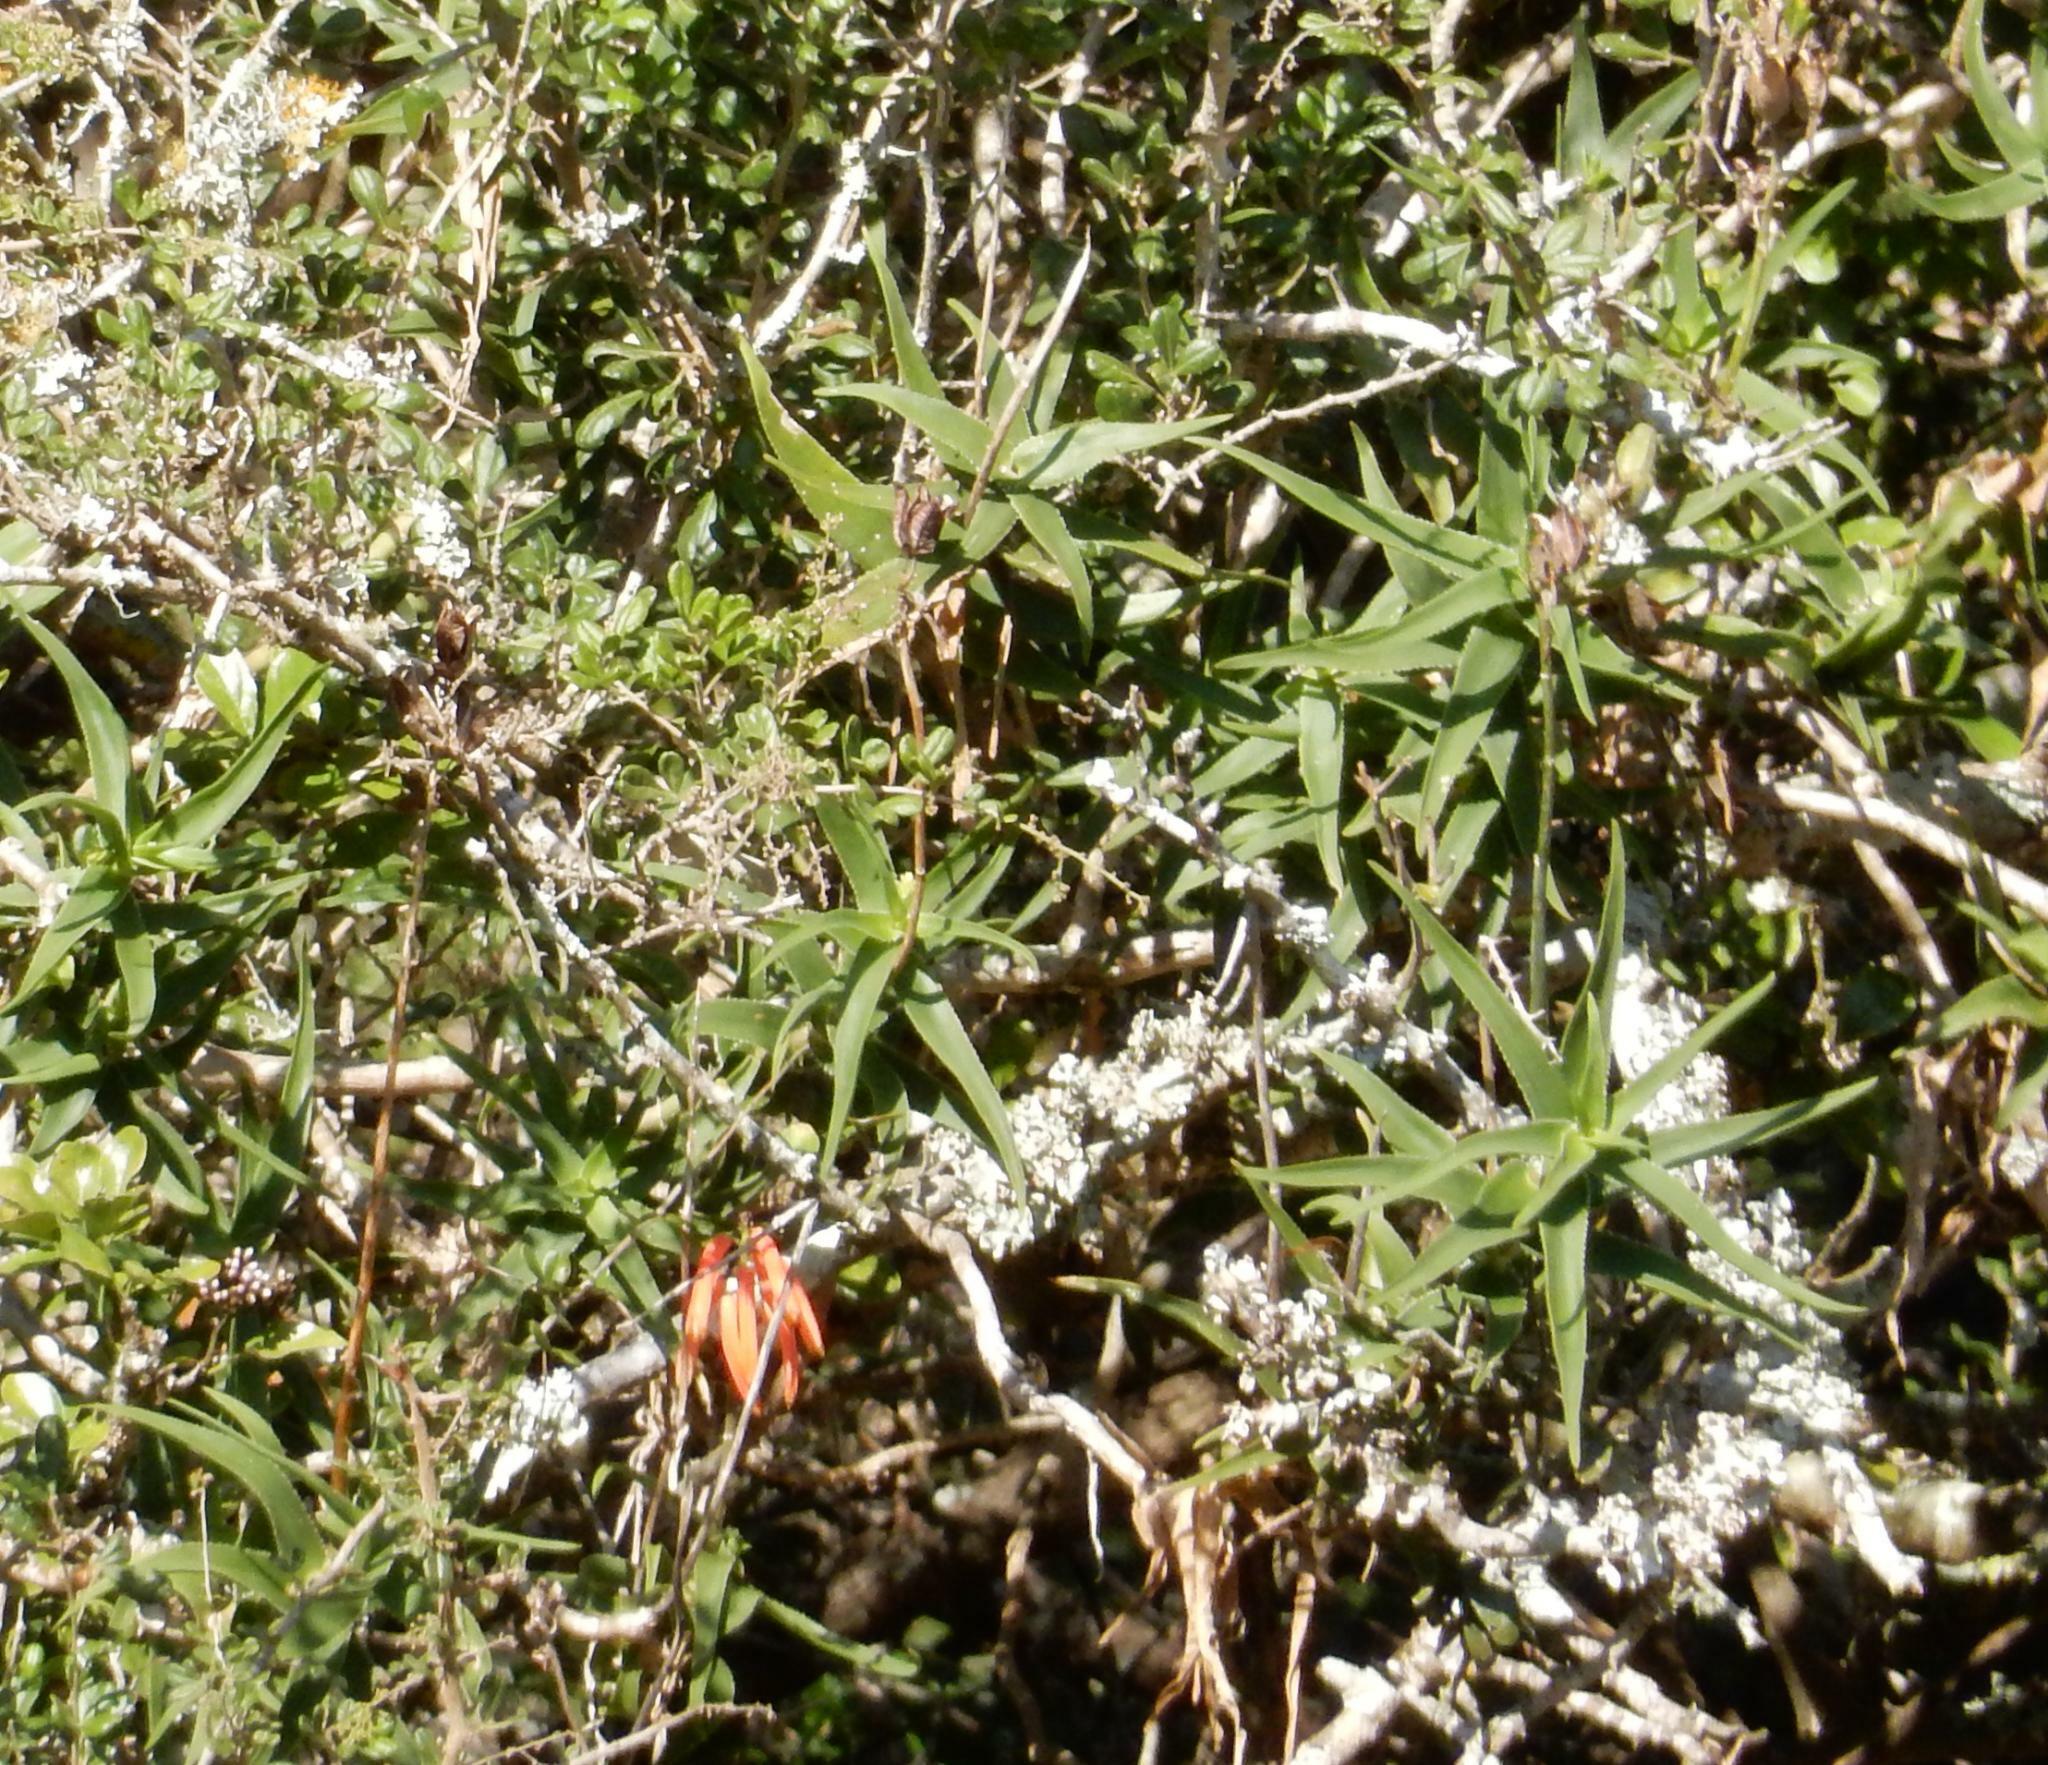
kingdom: Plantae
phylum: Tracheophyta
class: Liliopsida
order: Asparagales
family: Asphodelaceae
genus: Aloiampelos
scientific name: Aloiampelos ciliaris
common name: Climbing aloe
